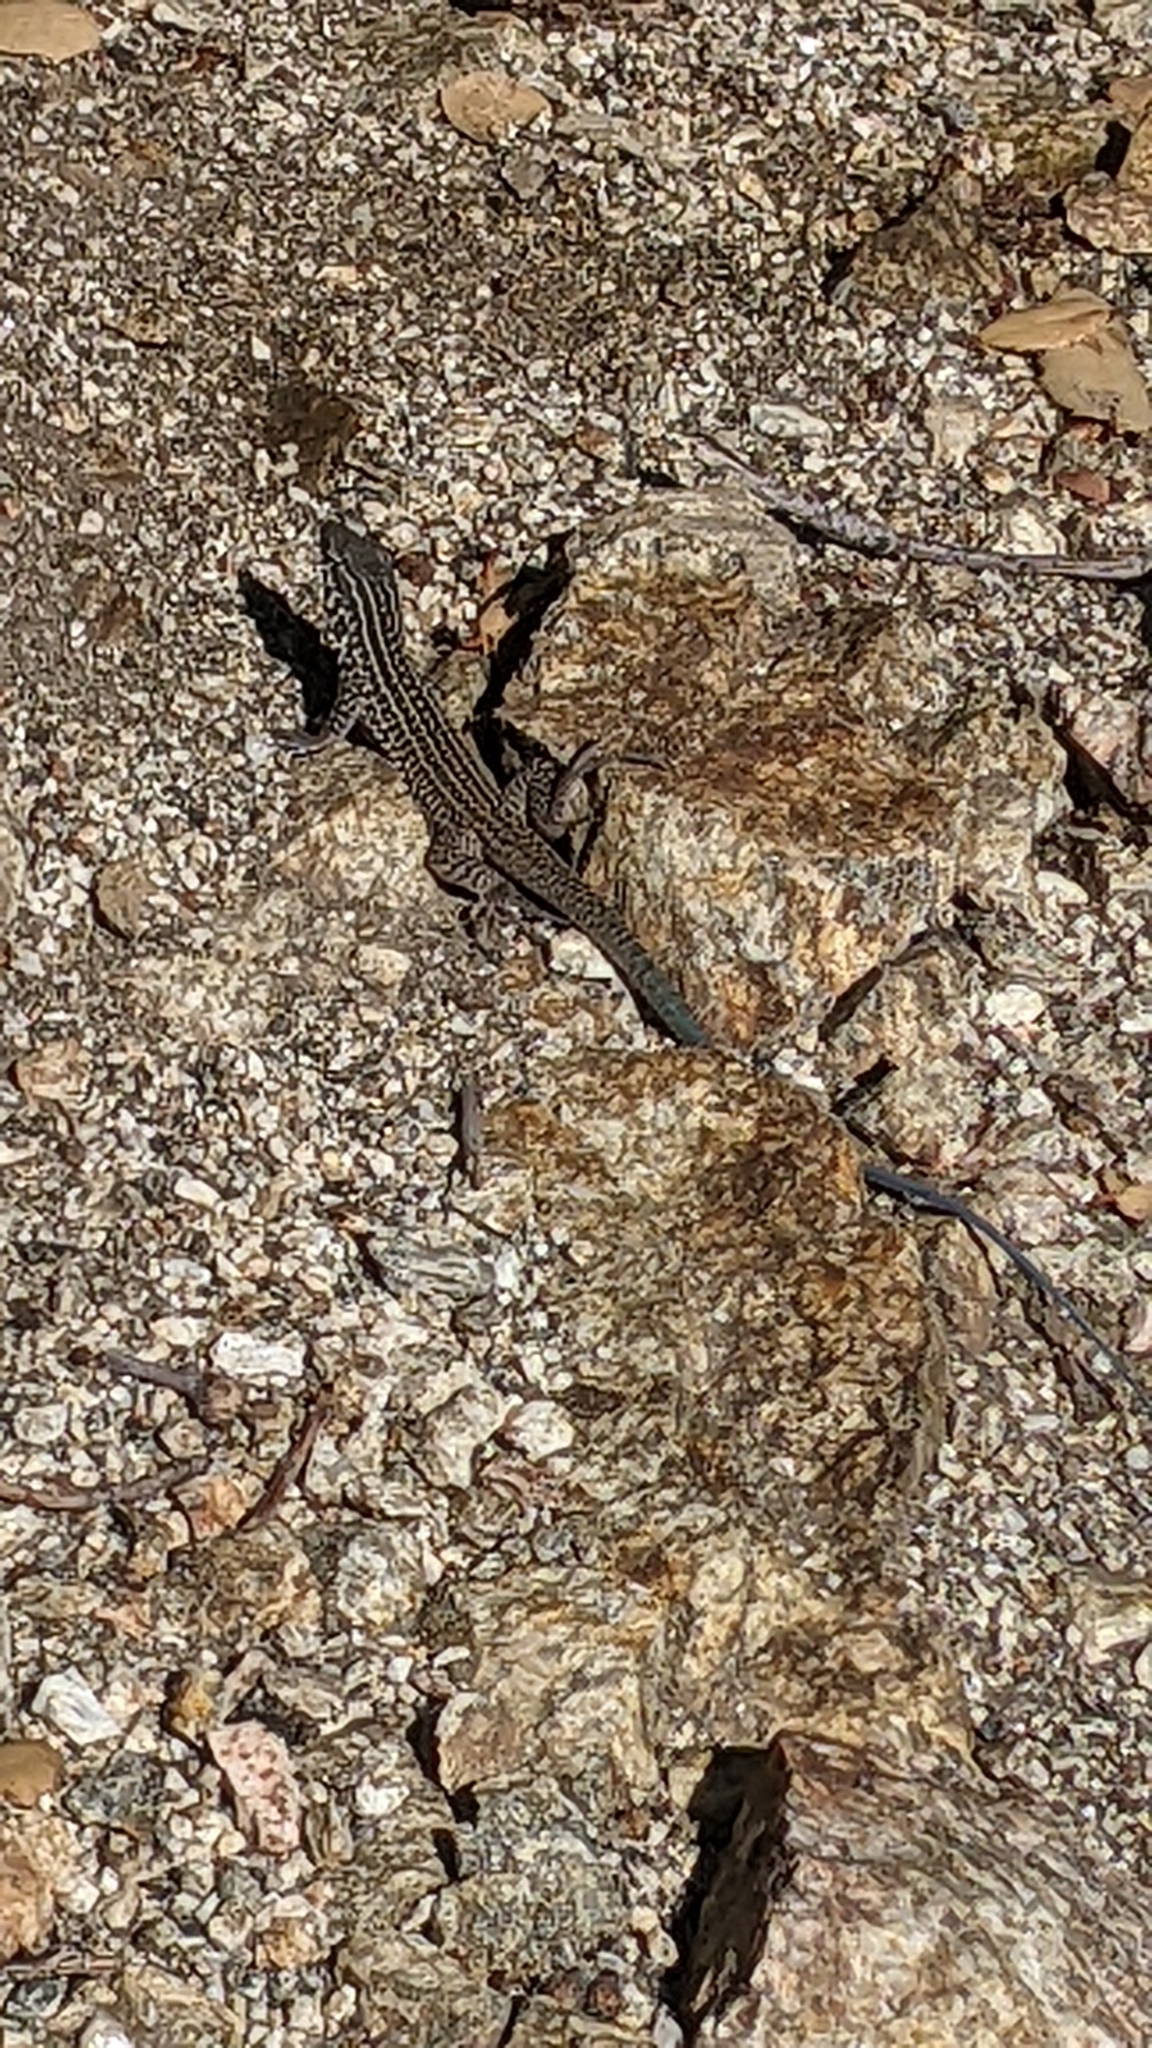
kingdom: Animalia
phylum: Chordata
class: Squamata
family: Teiidae
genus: Aspidoscelis
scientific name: Aspidoscelis tigris
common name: Tiger whiptail
